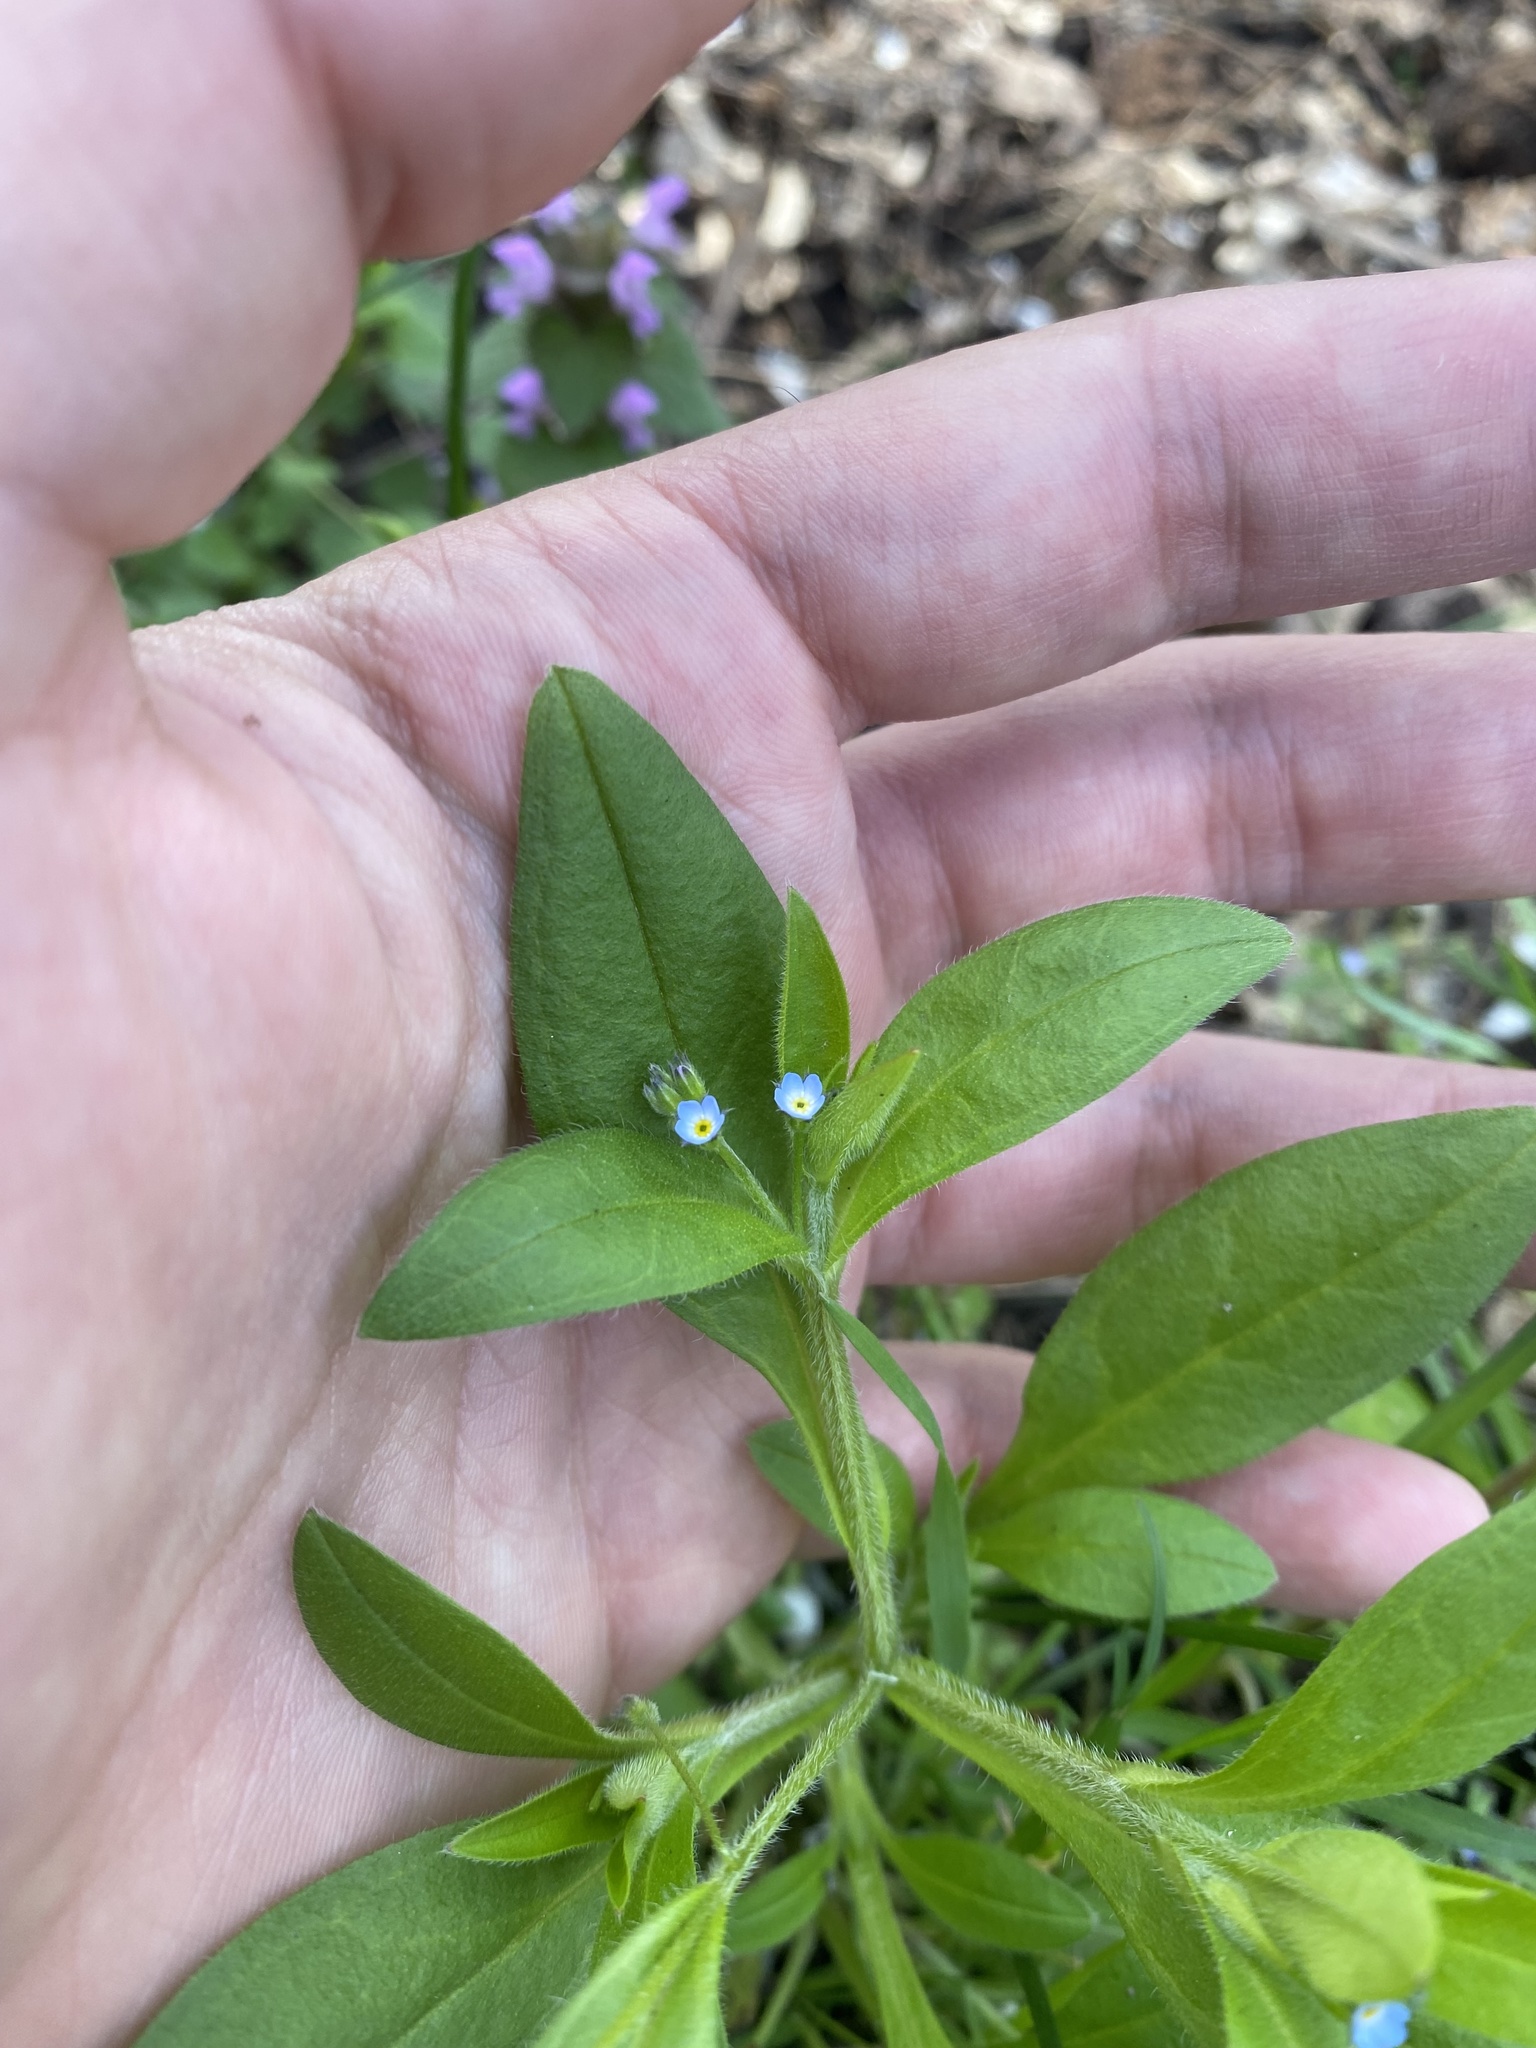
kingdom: Plantae
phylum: Tracheophyta
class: Magnoliopsida
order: Boraginales
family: Boraginaceae
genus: Myosotis
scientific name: Myosotis sparsiflora
